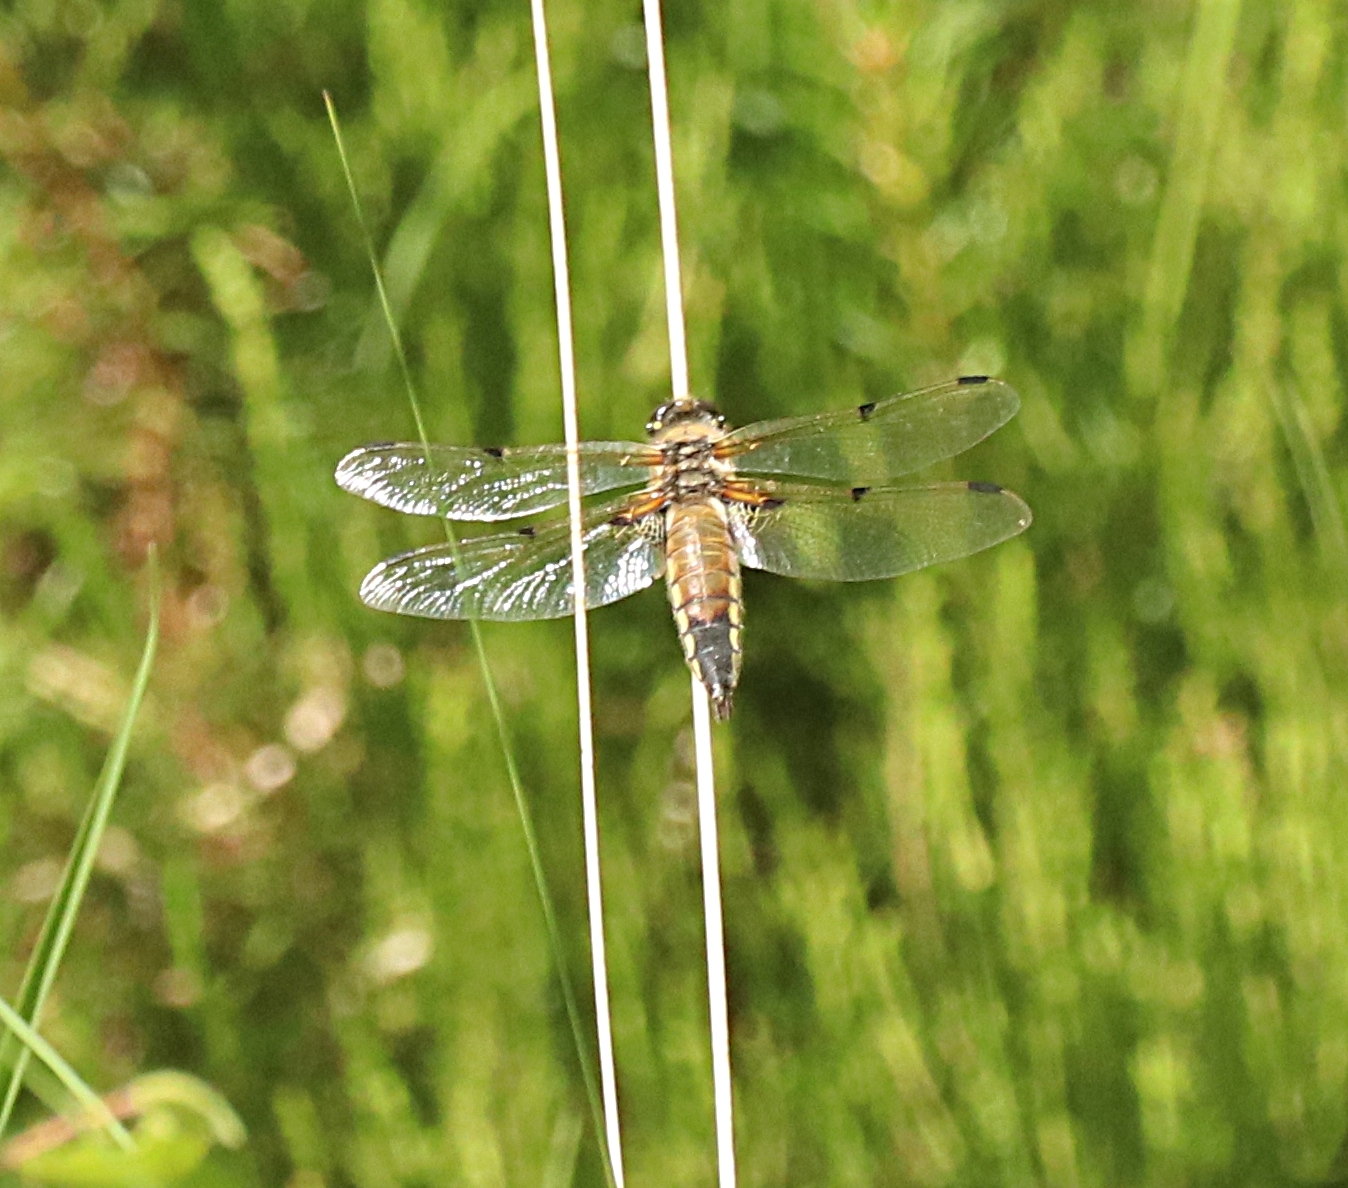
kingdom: Animalia
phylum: Arthropoda
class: Insecta
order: Odonata
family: Libellulidae
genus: Libellula
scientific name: Libellula quadrimaculata
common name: Four-spotted chaser
